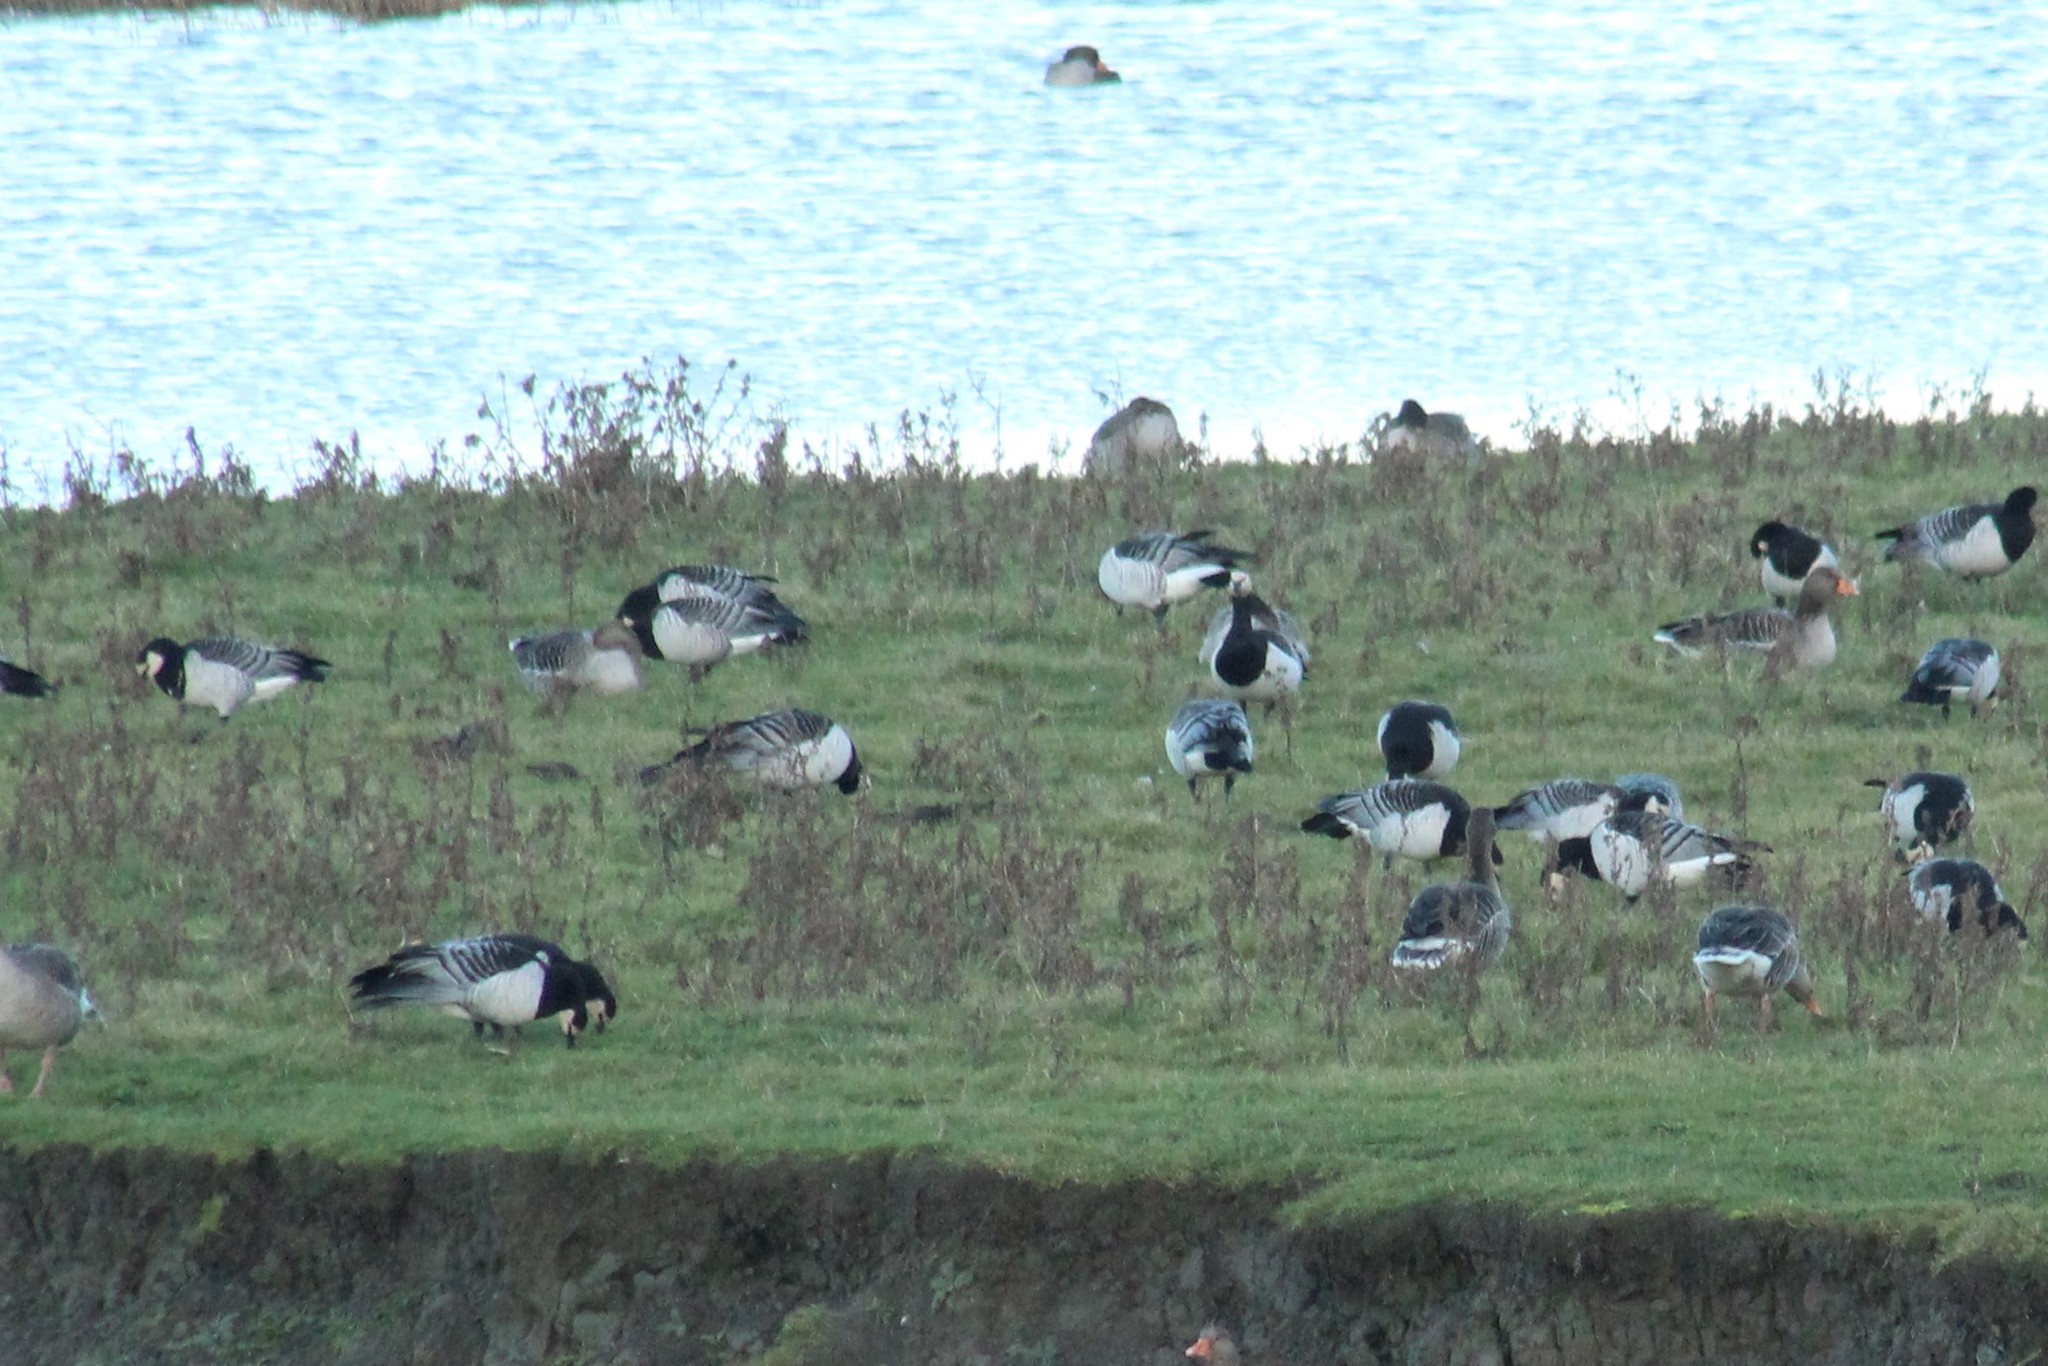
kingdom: Animalia
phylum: Chordata
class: Aves
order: Anseriformes
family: Anatidae
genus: Branta
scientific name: Branta leucopsis
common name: Barnacle goose
